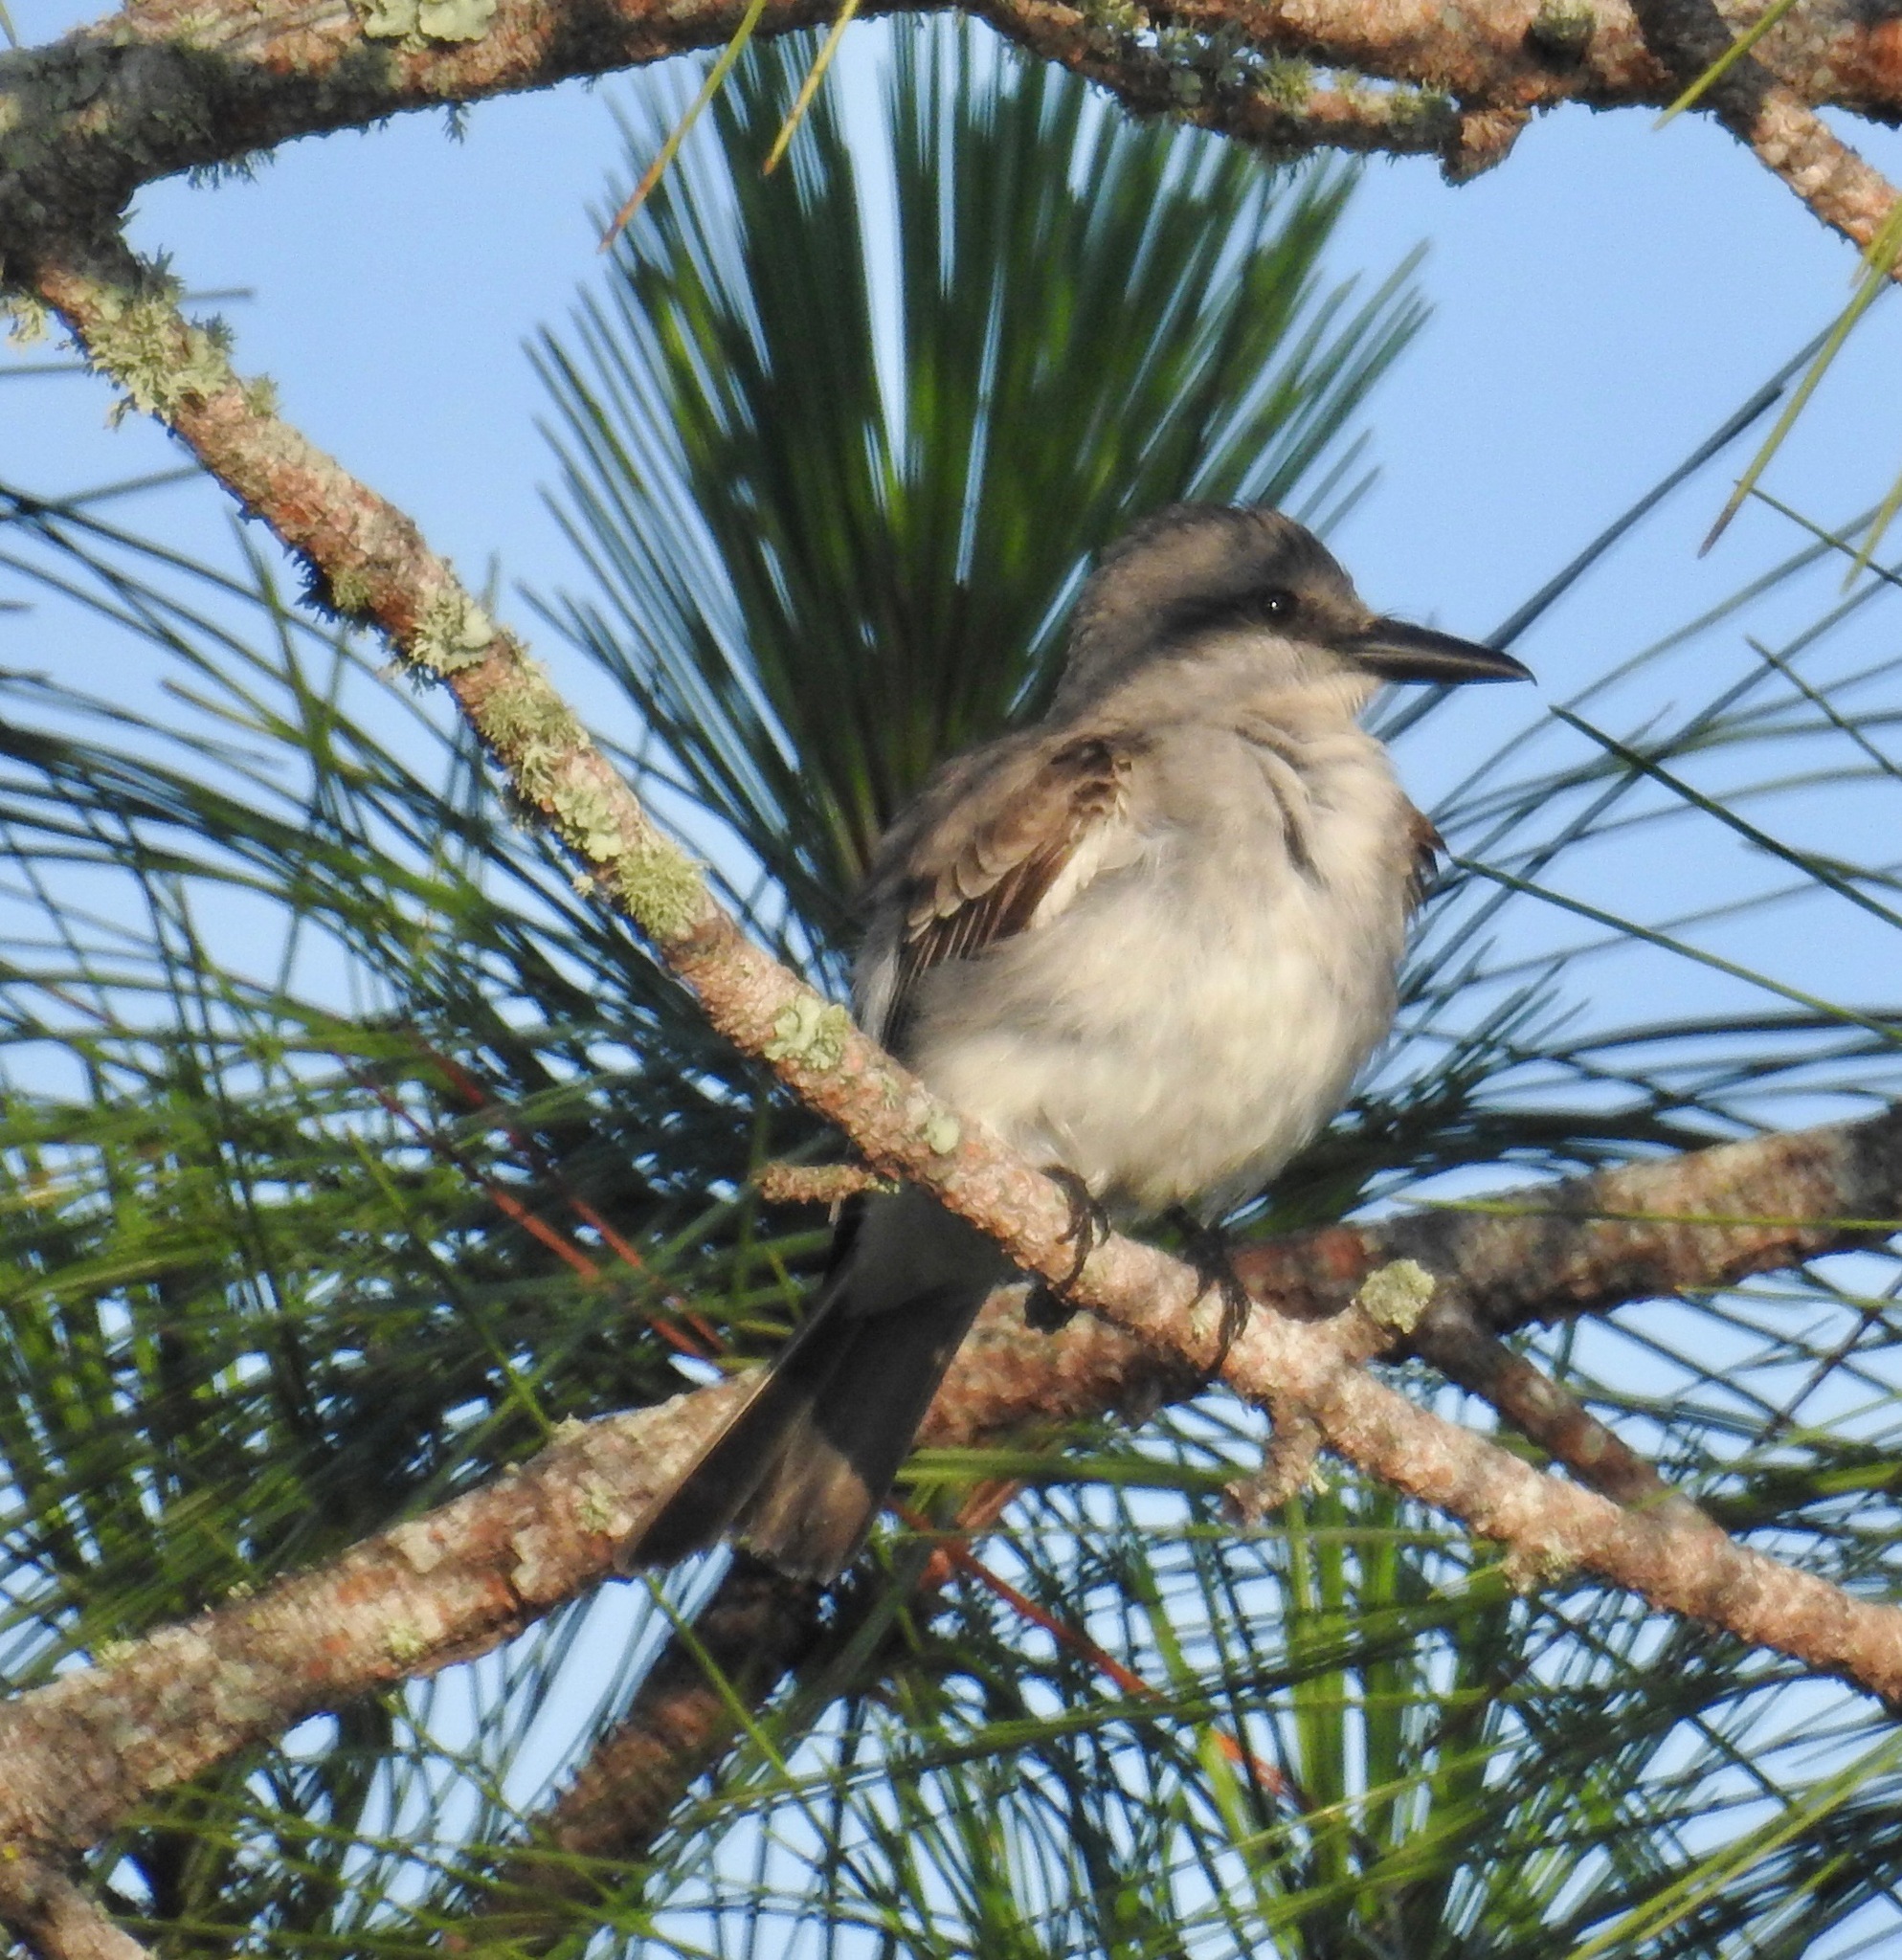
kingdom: Animalia
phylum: Chordata
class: Aves
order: Passeriformes
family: Tyrannidae
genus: Tyrannus
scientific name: Tyrannus dominicensis
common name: Gray kingbird
